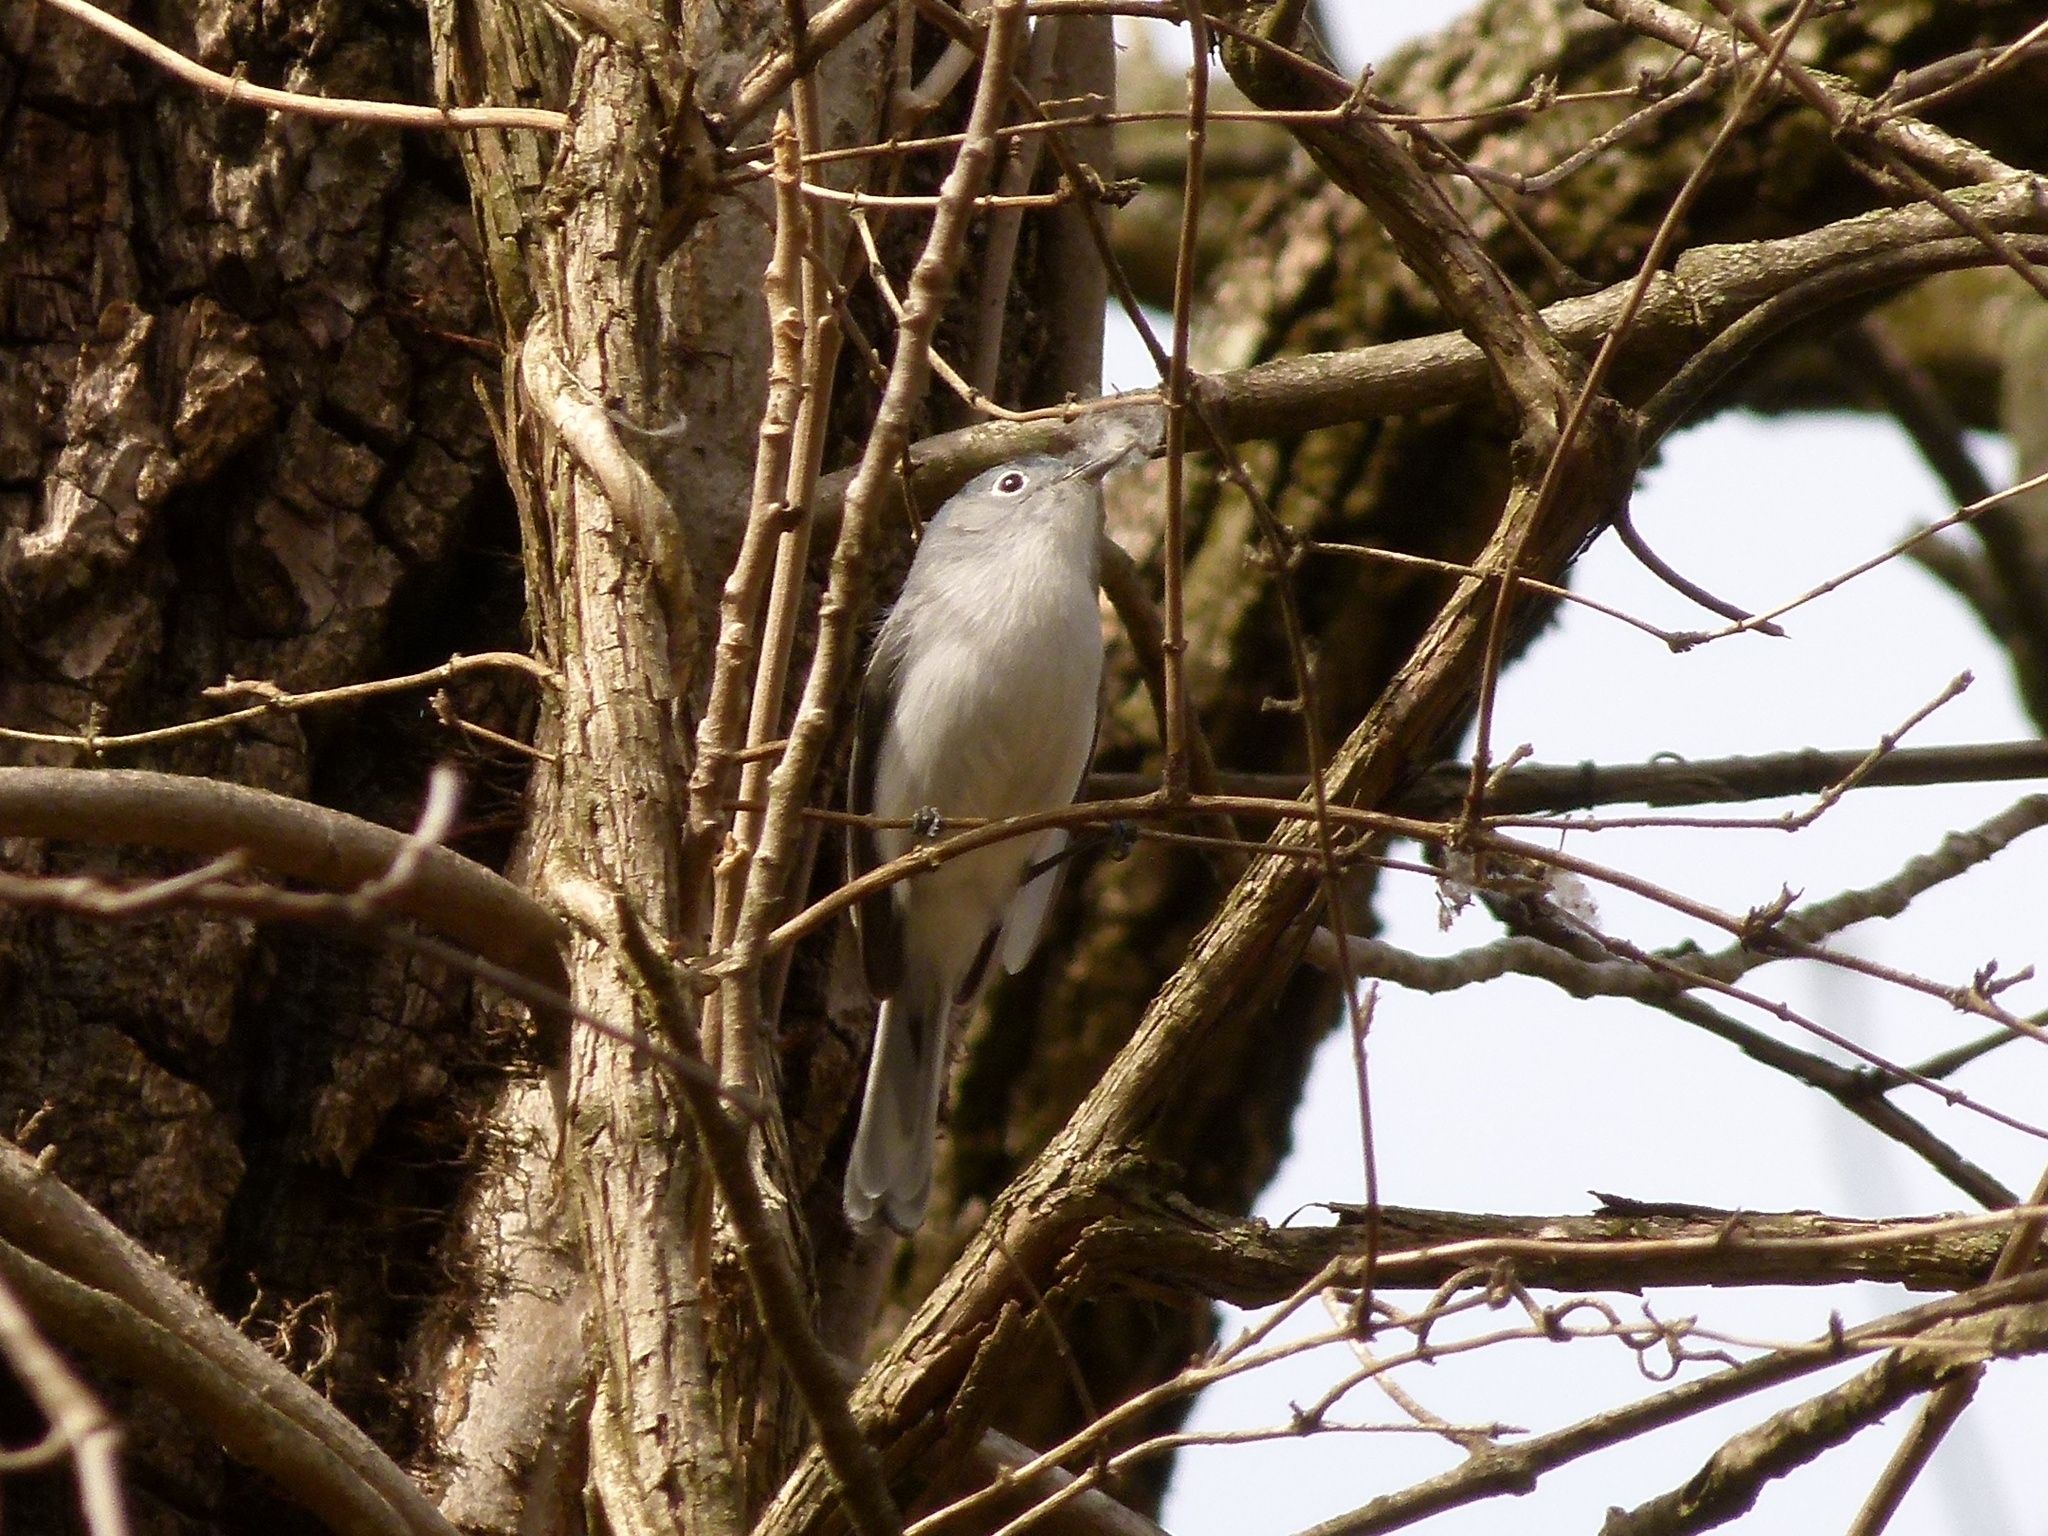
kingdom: Animalia
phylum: Chordata
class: Aves
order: Passeriformes
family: Polioptilidae
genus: Polioptila
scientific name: Polioptila caerulea
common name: Blue-gray gnatcatcher
